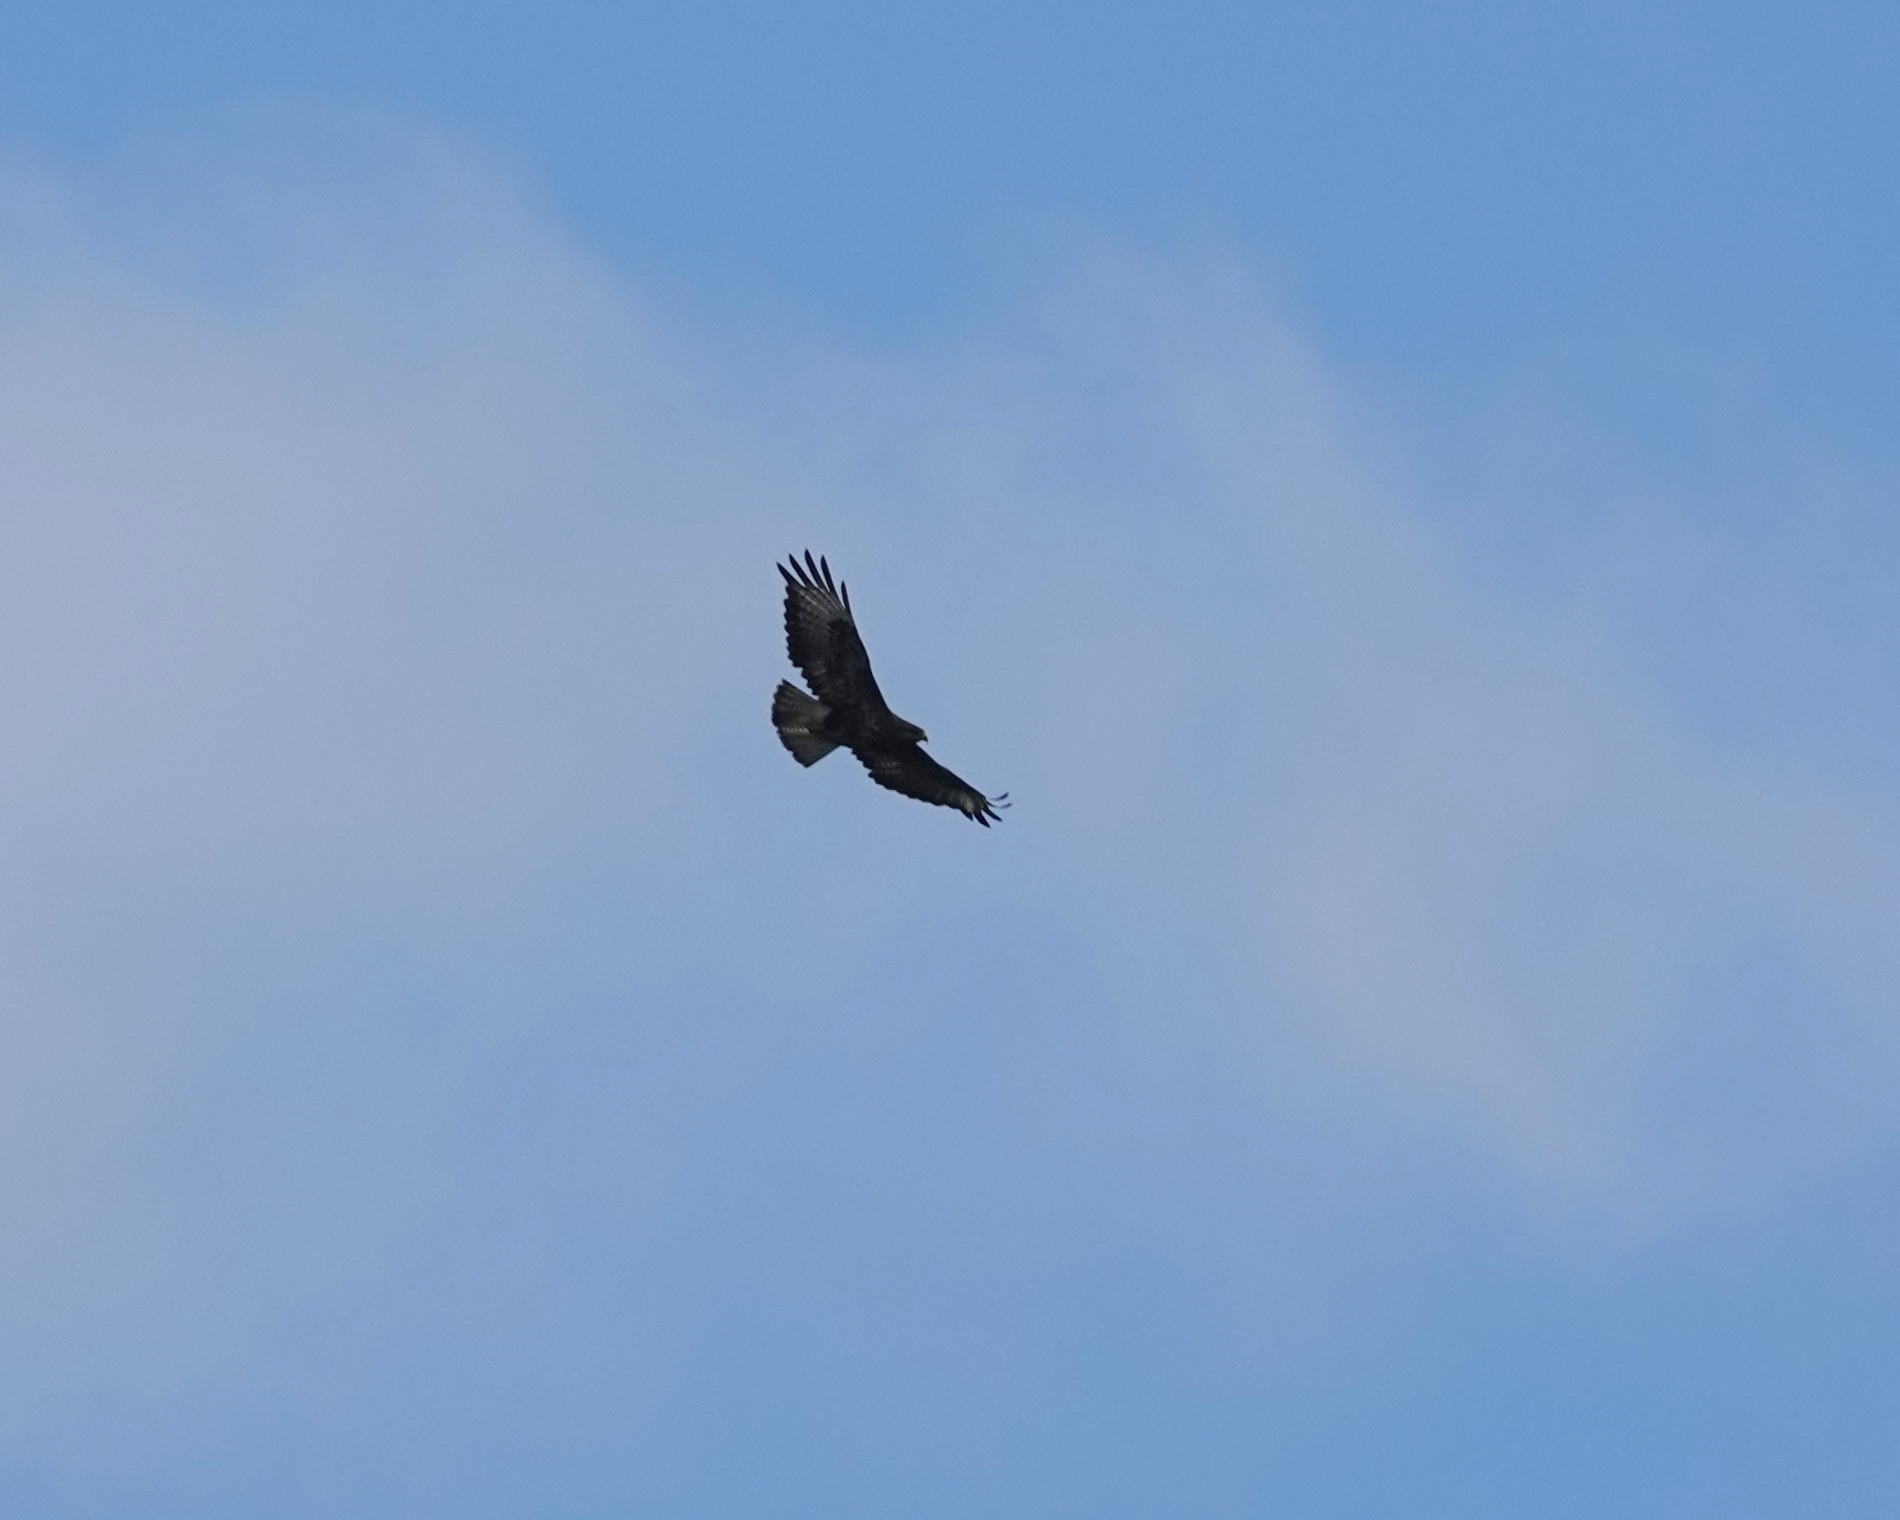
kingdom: Animalia
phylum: Chordata
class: Aves
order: Accipitriformes
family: Accipitridae
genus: Buteo
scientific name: Buteo buteo
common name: Common buzzard
